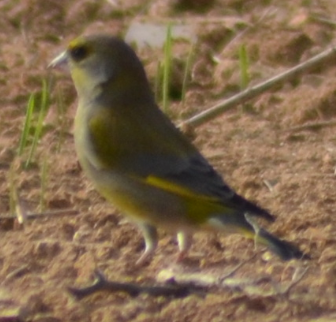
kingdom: Plantae
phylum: Tracheophyta
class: Liliopsida
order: Poales
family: Poaceae
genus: Chloris
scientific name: Chloris chloris
